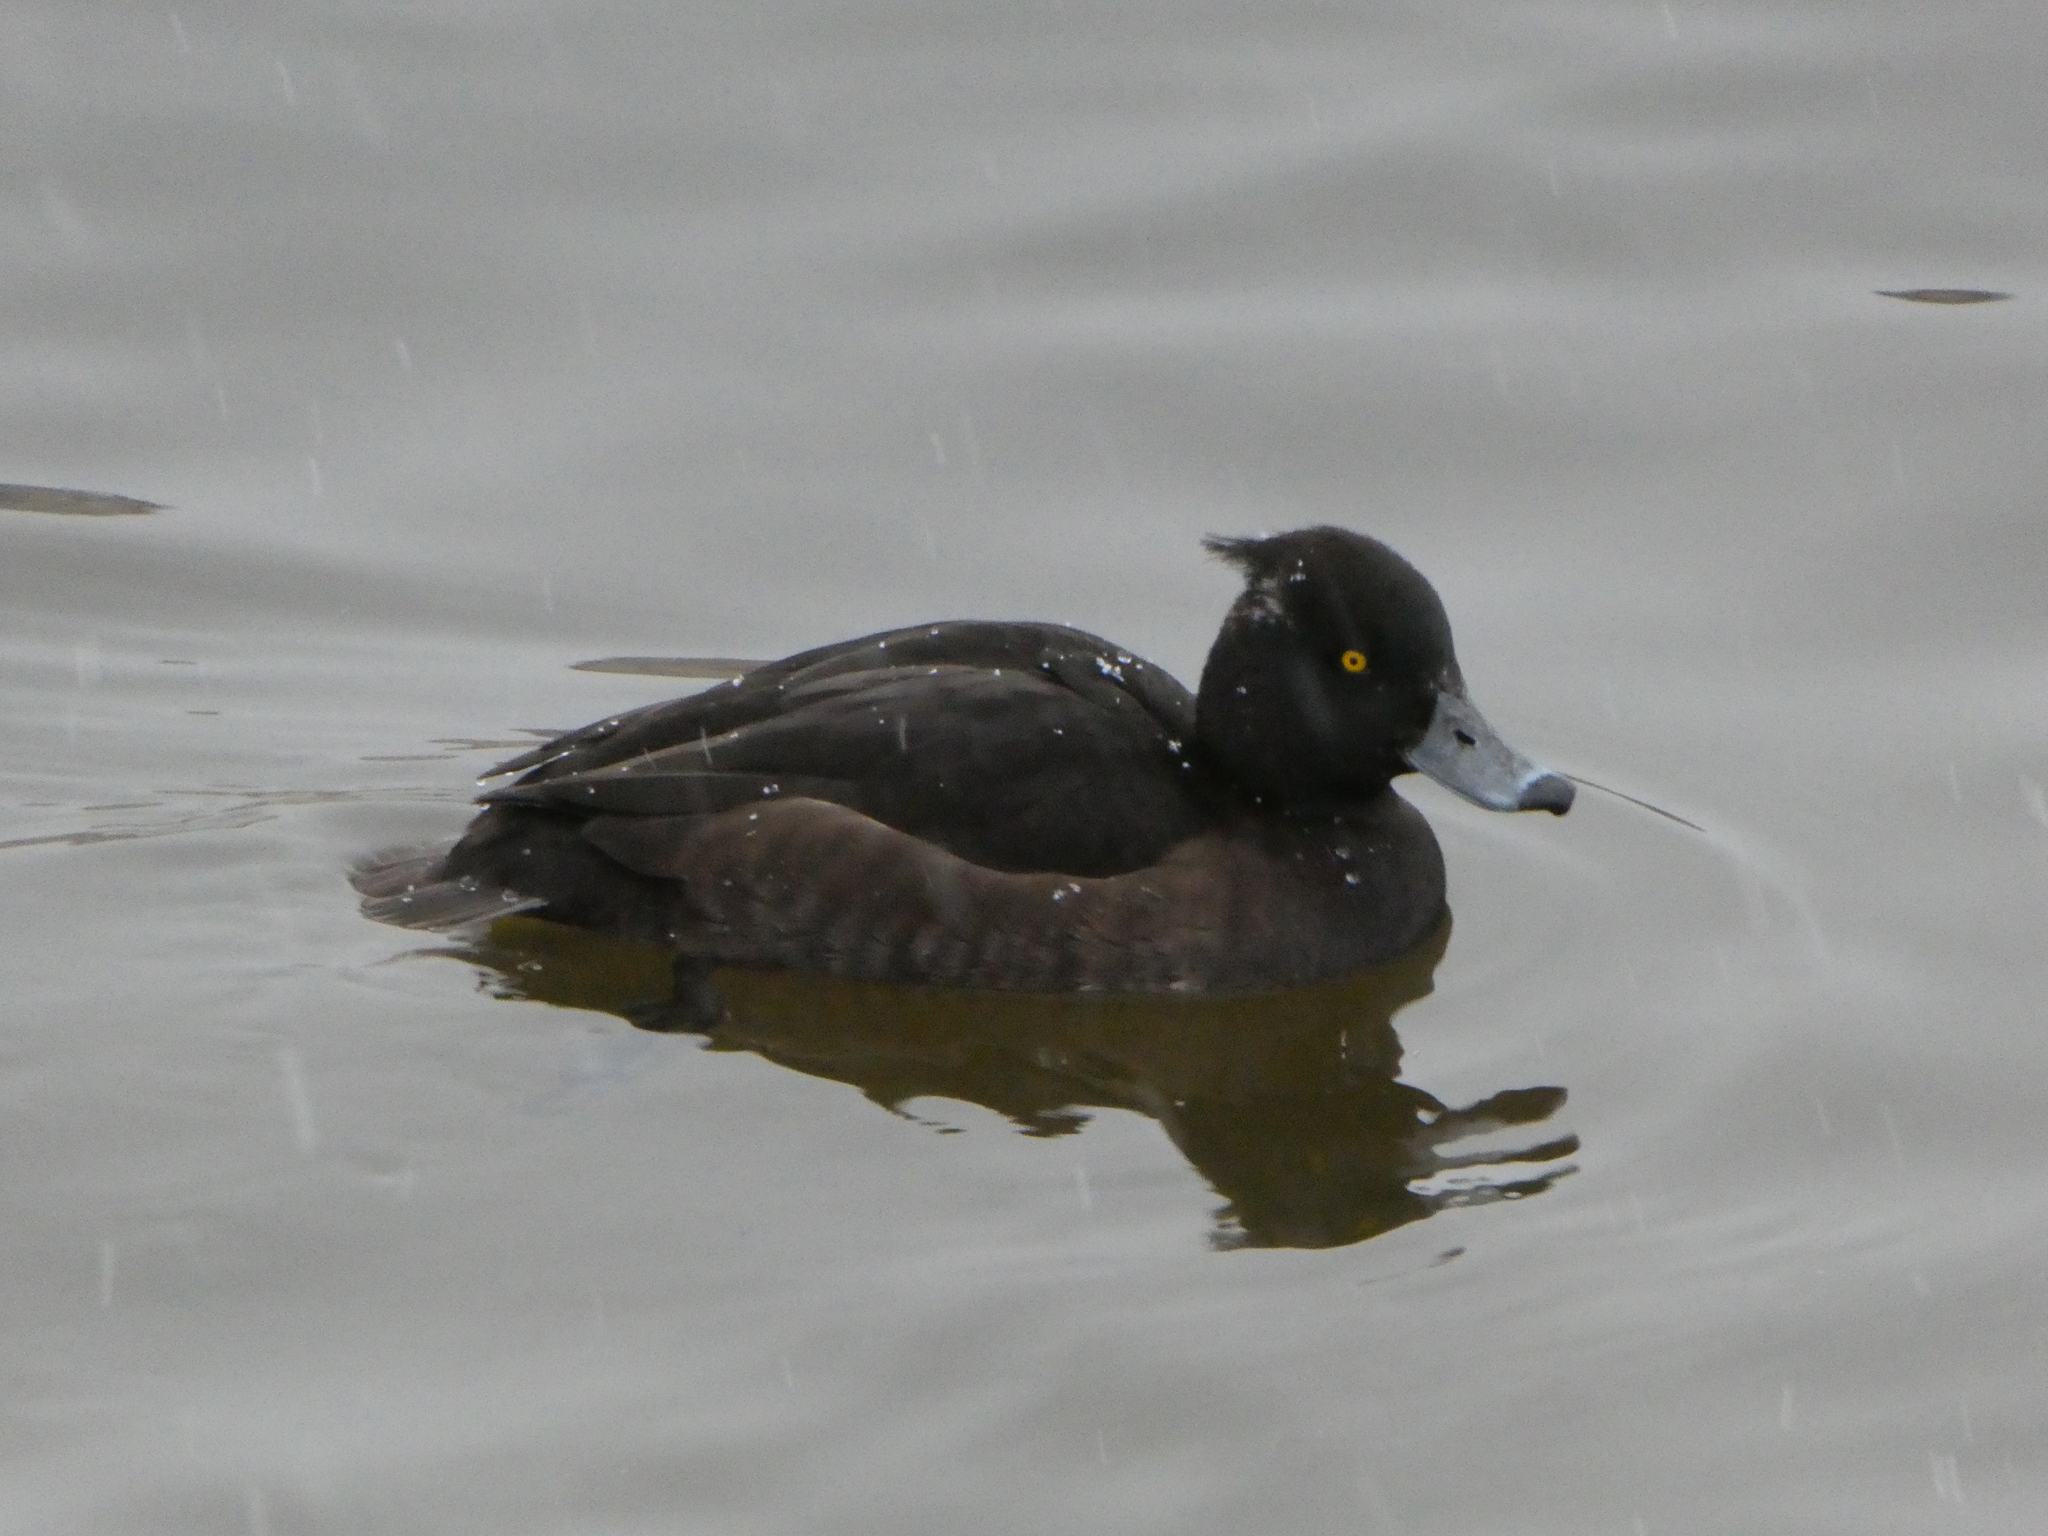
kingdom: Animalia
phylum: Chordata
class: Aves
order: Anseriformes
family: Anatidae
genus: Aythya
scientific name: Aythya fuligula
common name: Tufted duck
